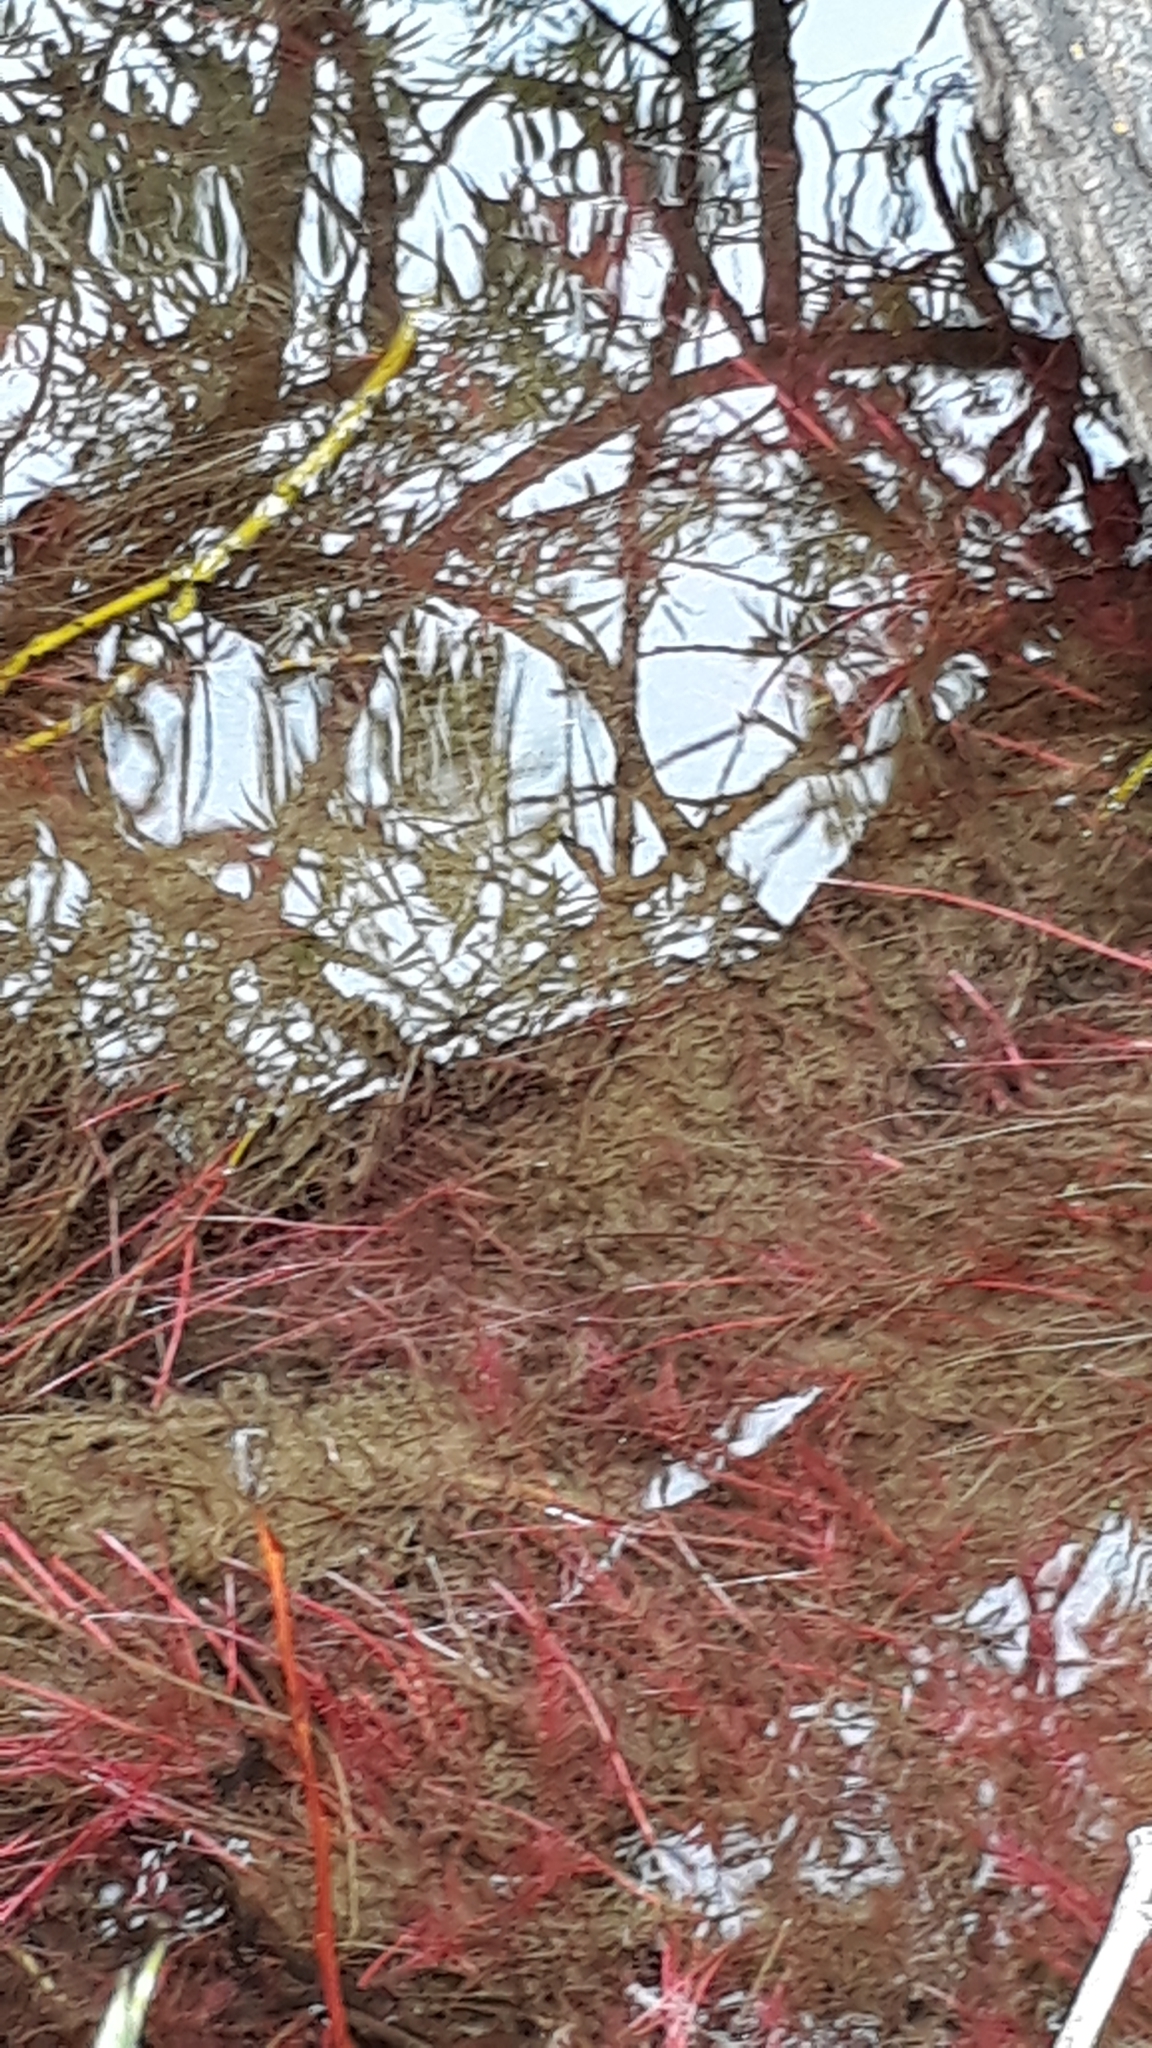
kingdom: Plantae
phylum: Tracheophyta
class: Magnoliopsida
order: Malpighiales
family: Salicaceae
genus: Salix
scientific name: Salix fragilis
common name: Crack willow
